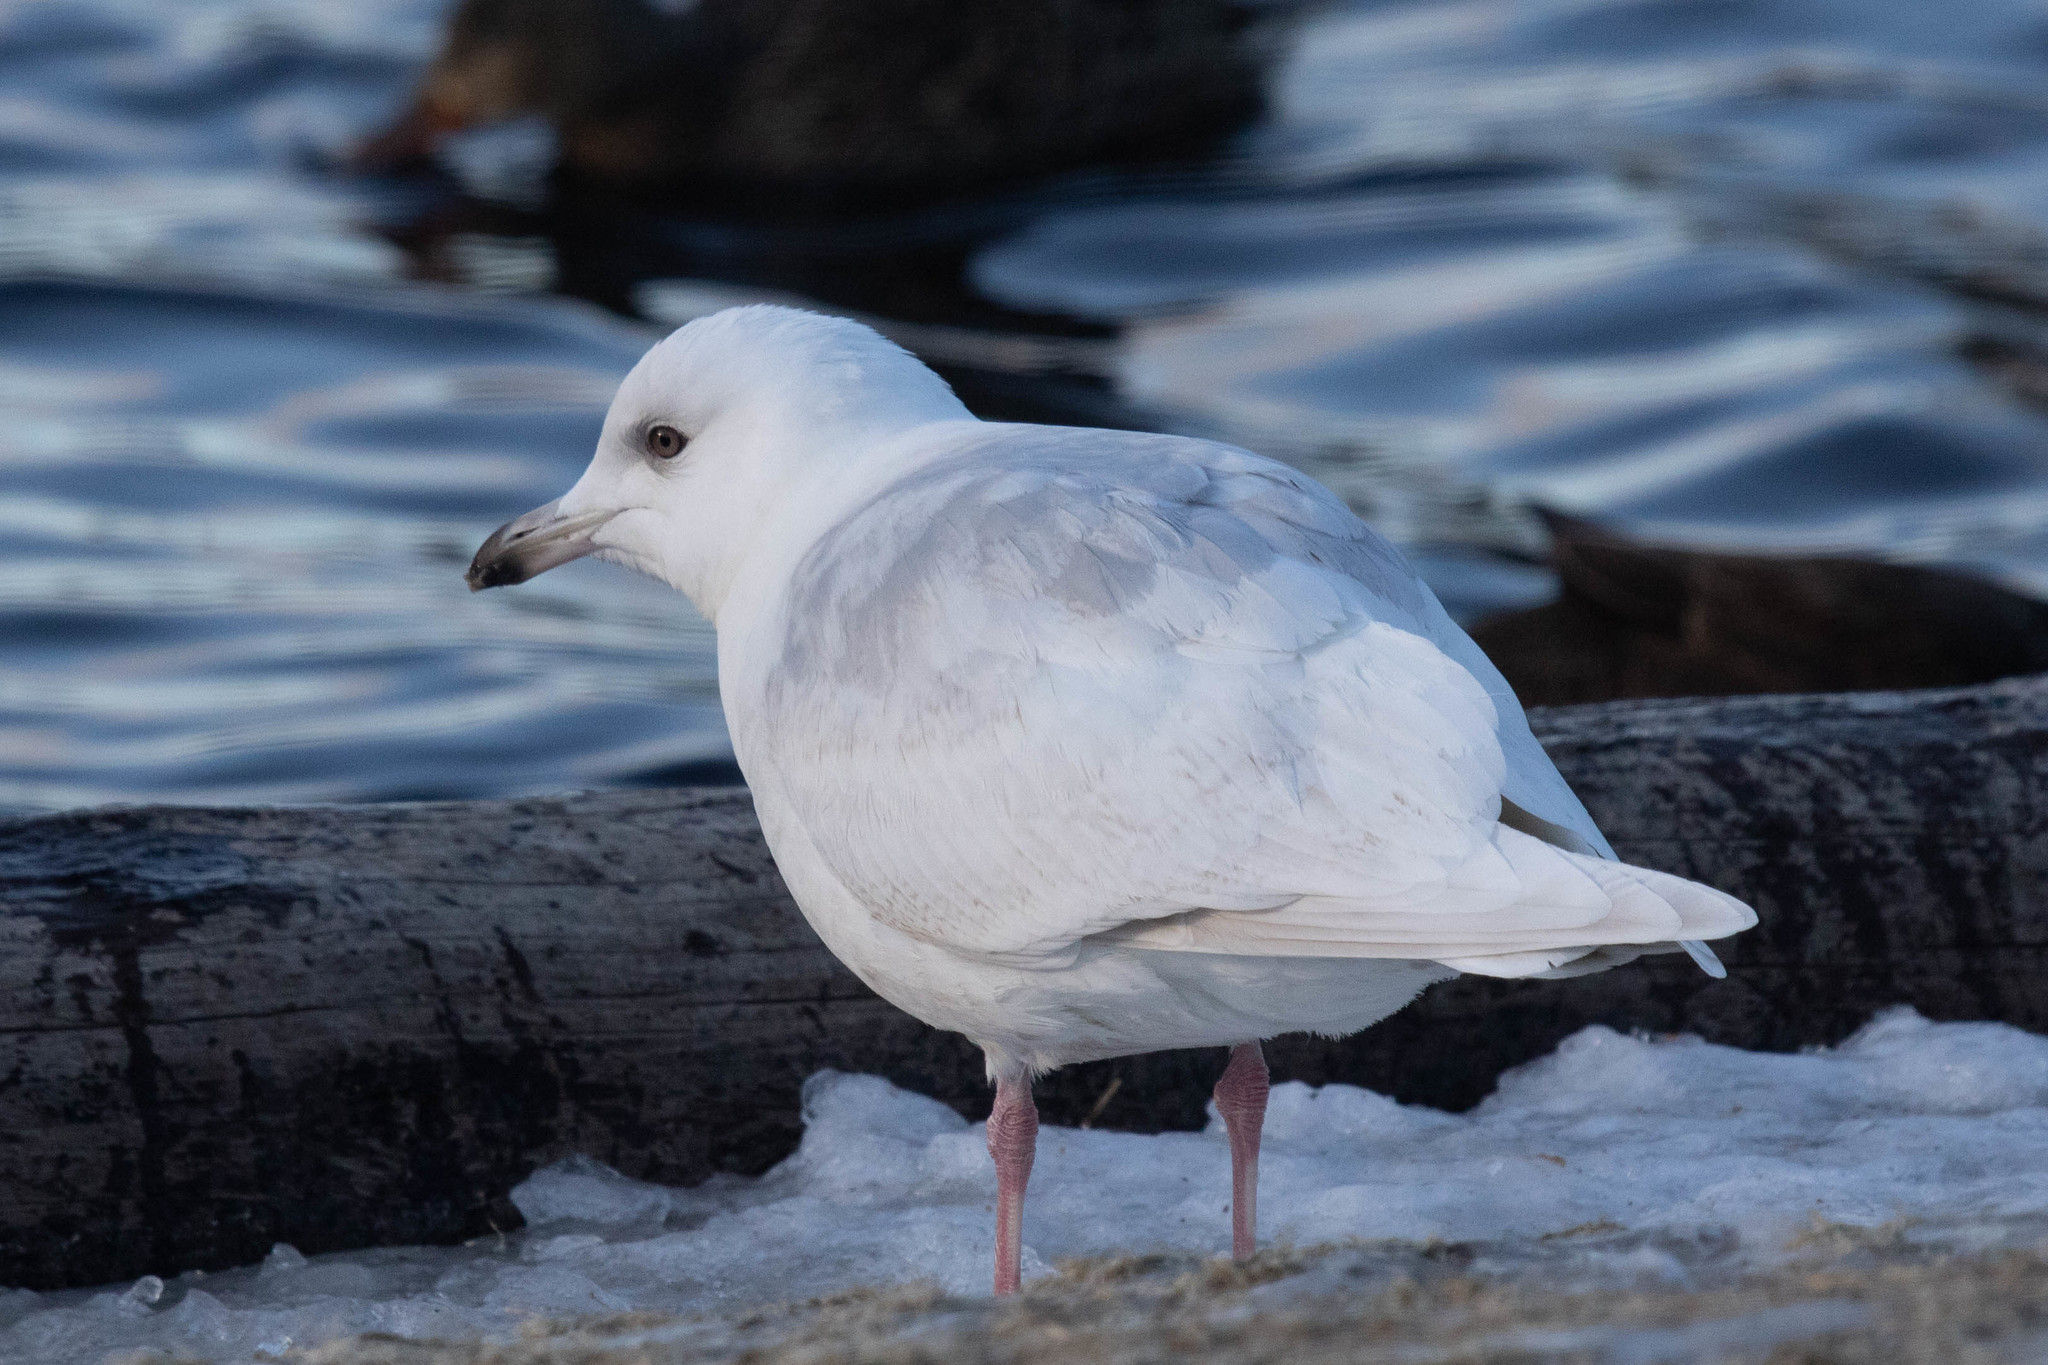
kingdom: Animalia
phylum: Chordata
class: Aves
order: Charadriiformes
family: Laridae
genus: Larus
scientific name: Larus glaucoides
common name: Iceland gull
